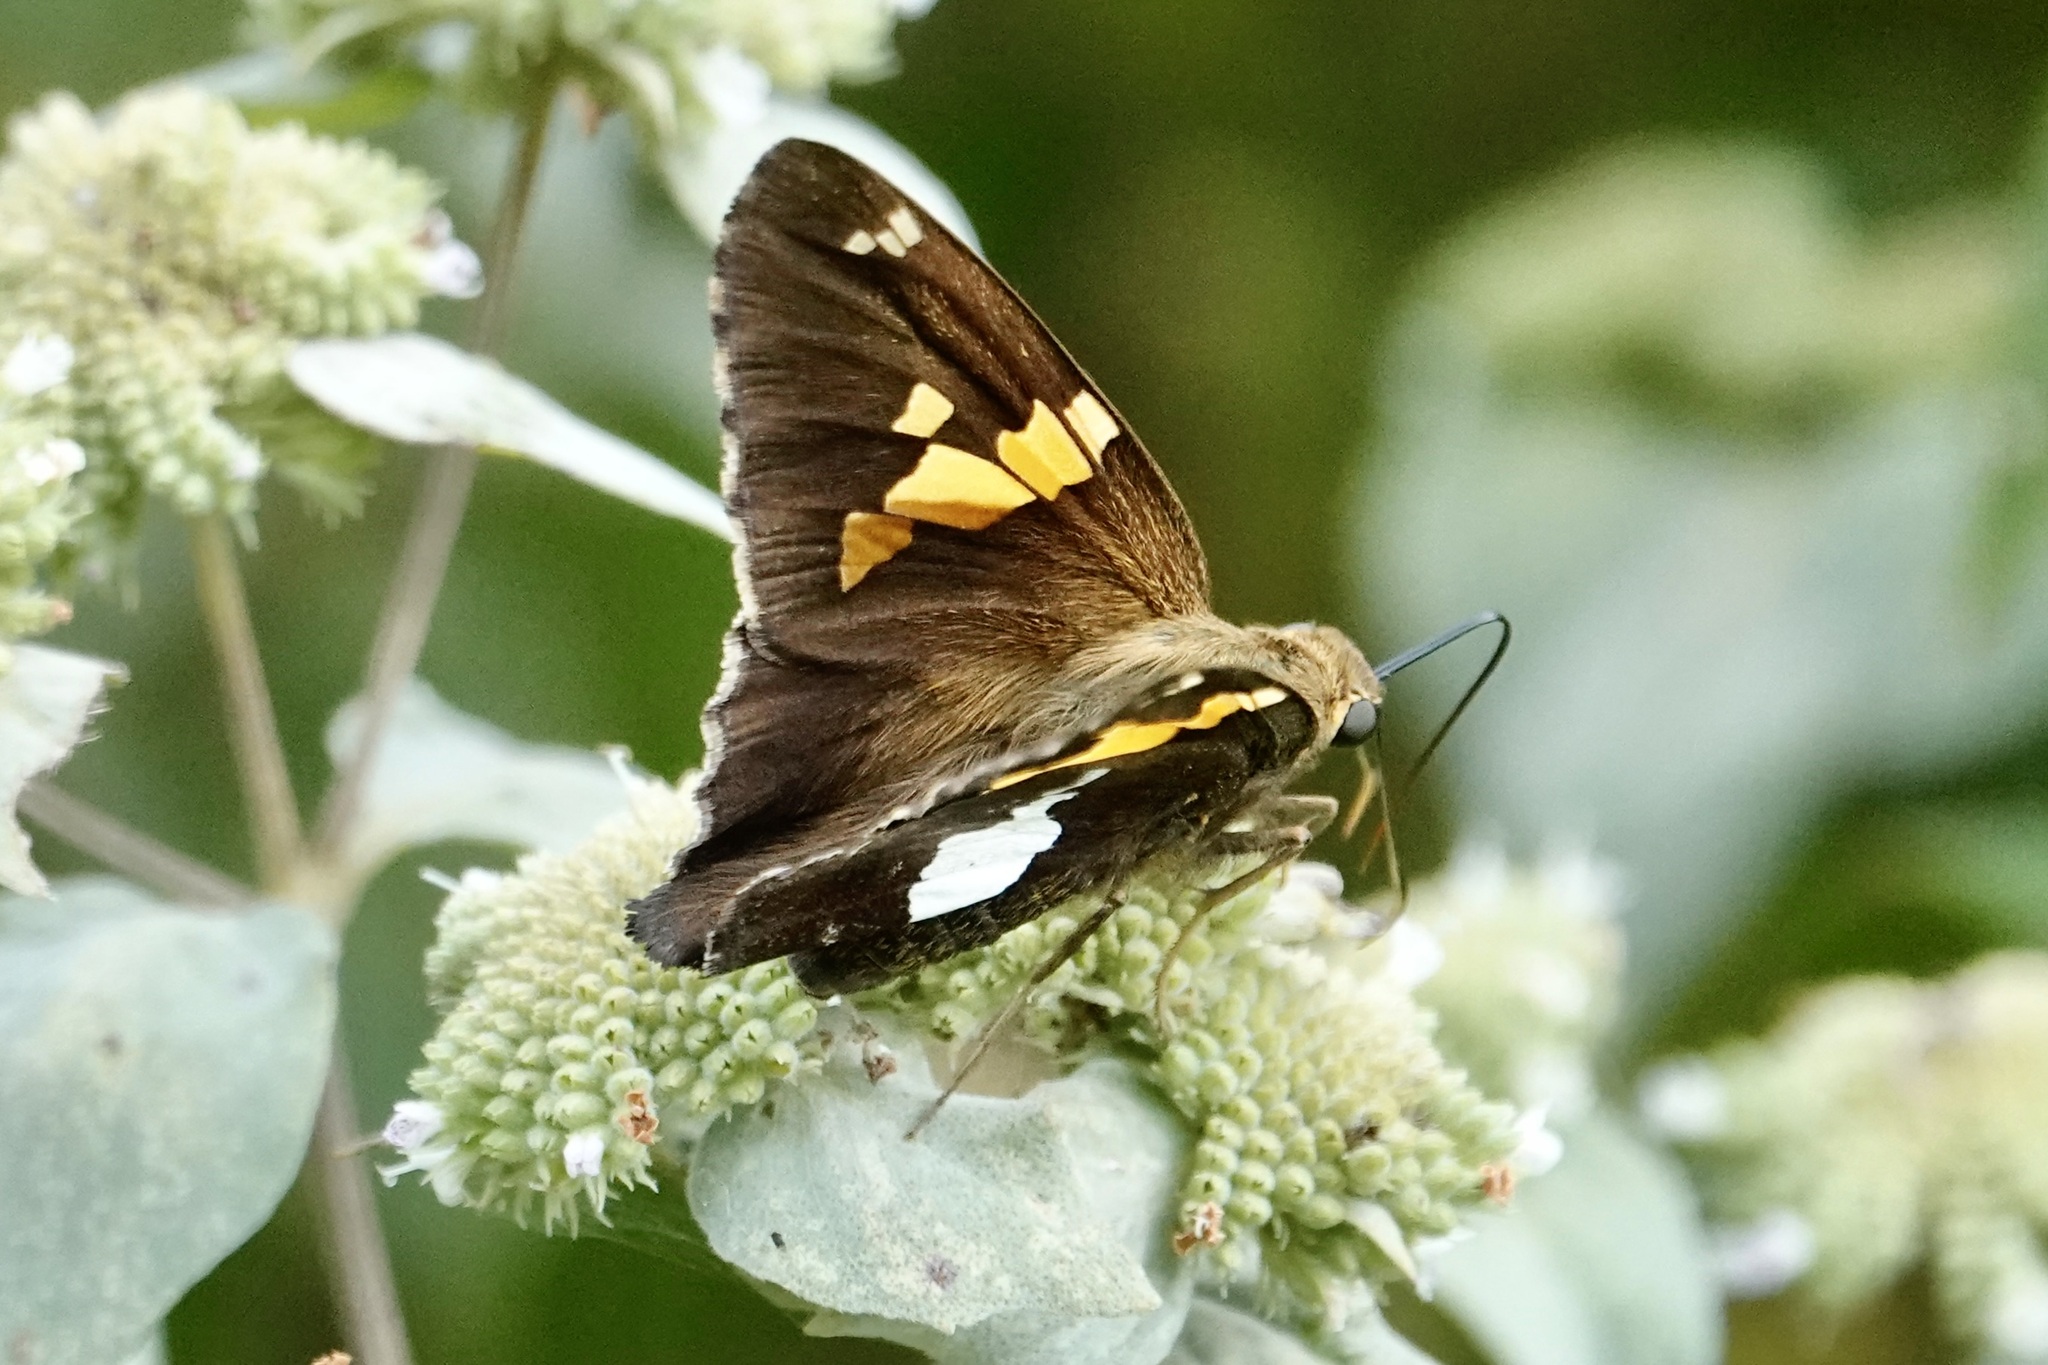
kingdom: Animalia
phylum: Arthropoda
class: Insecta
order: Lepidoptera
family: Hesperiidae
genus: Epargyreus
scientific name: Epargyreus clarus
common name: Silver-spotted skipper
